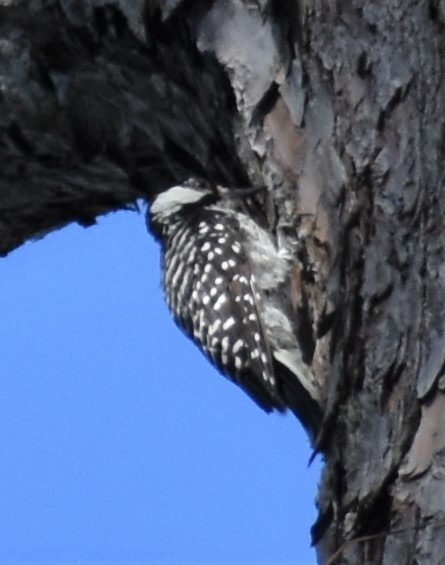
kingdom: Animalia
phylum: Chordata
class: Aves
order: Piciformes
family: Picidae
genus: Leuconotopicus
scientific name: Leuconotopicus borealis
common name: Red-cockaded woodpecker
